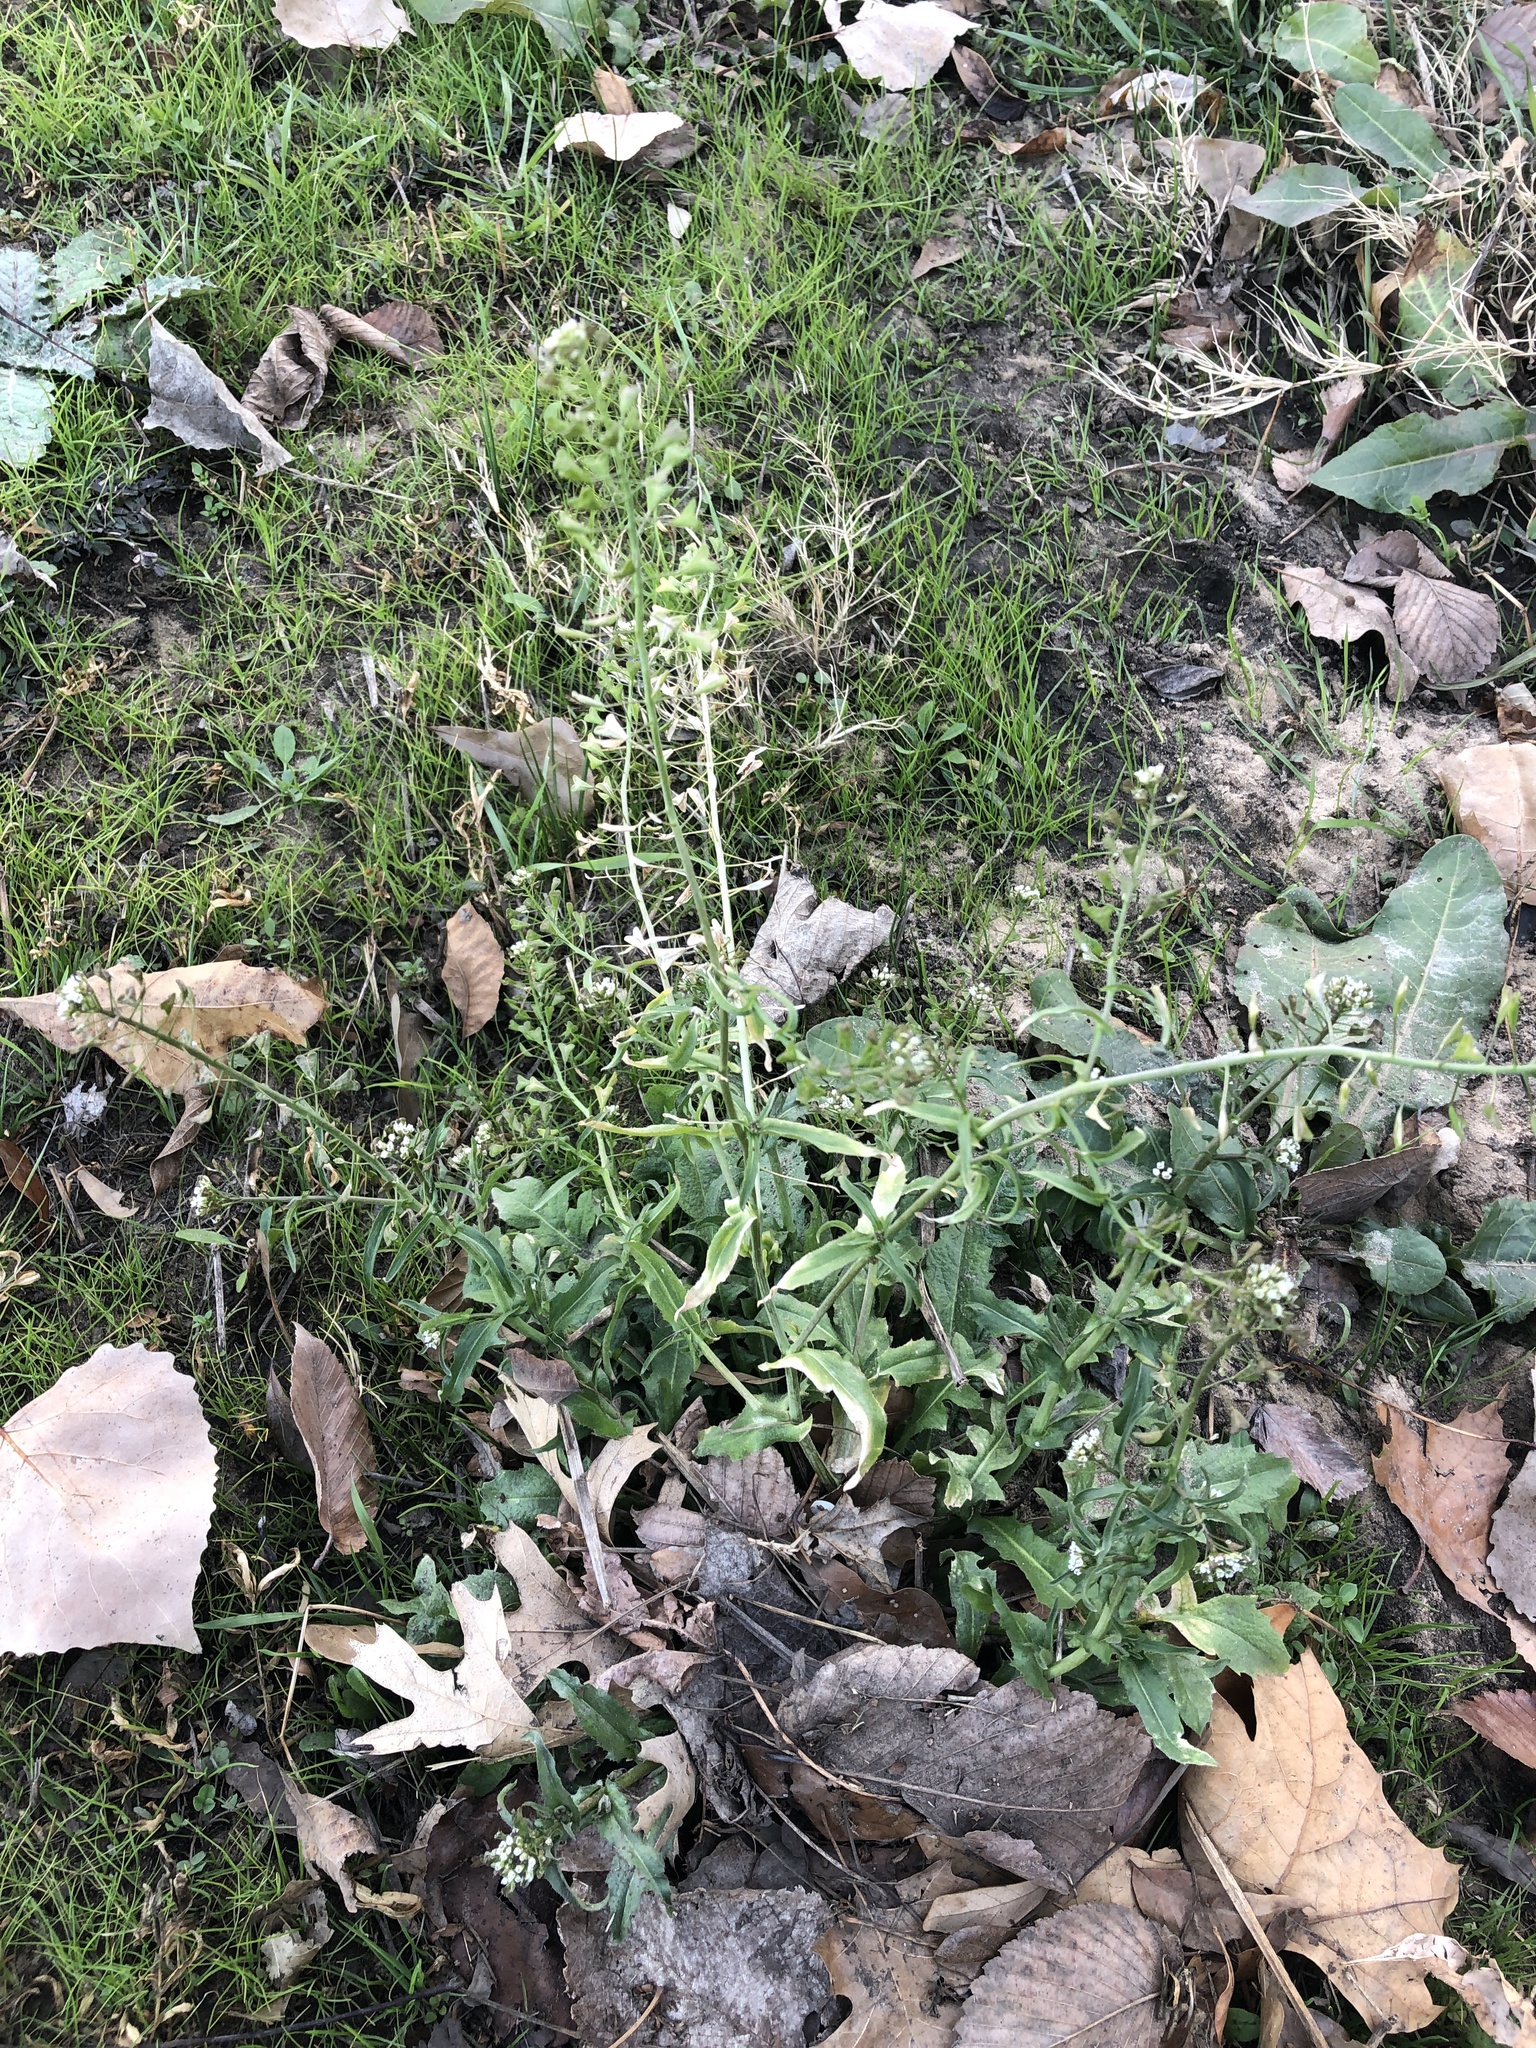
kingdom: Plantae
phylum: Tracheophyta
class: Magnoliopsida
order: Brassicales
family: Brassicaceae
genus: Capsella
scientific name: Capsella bursa-pastoris
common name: Shepherd's purse
